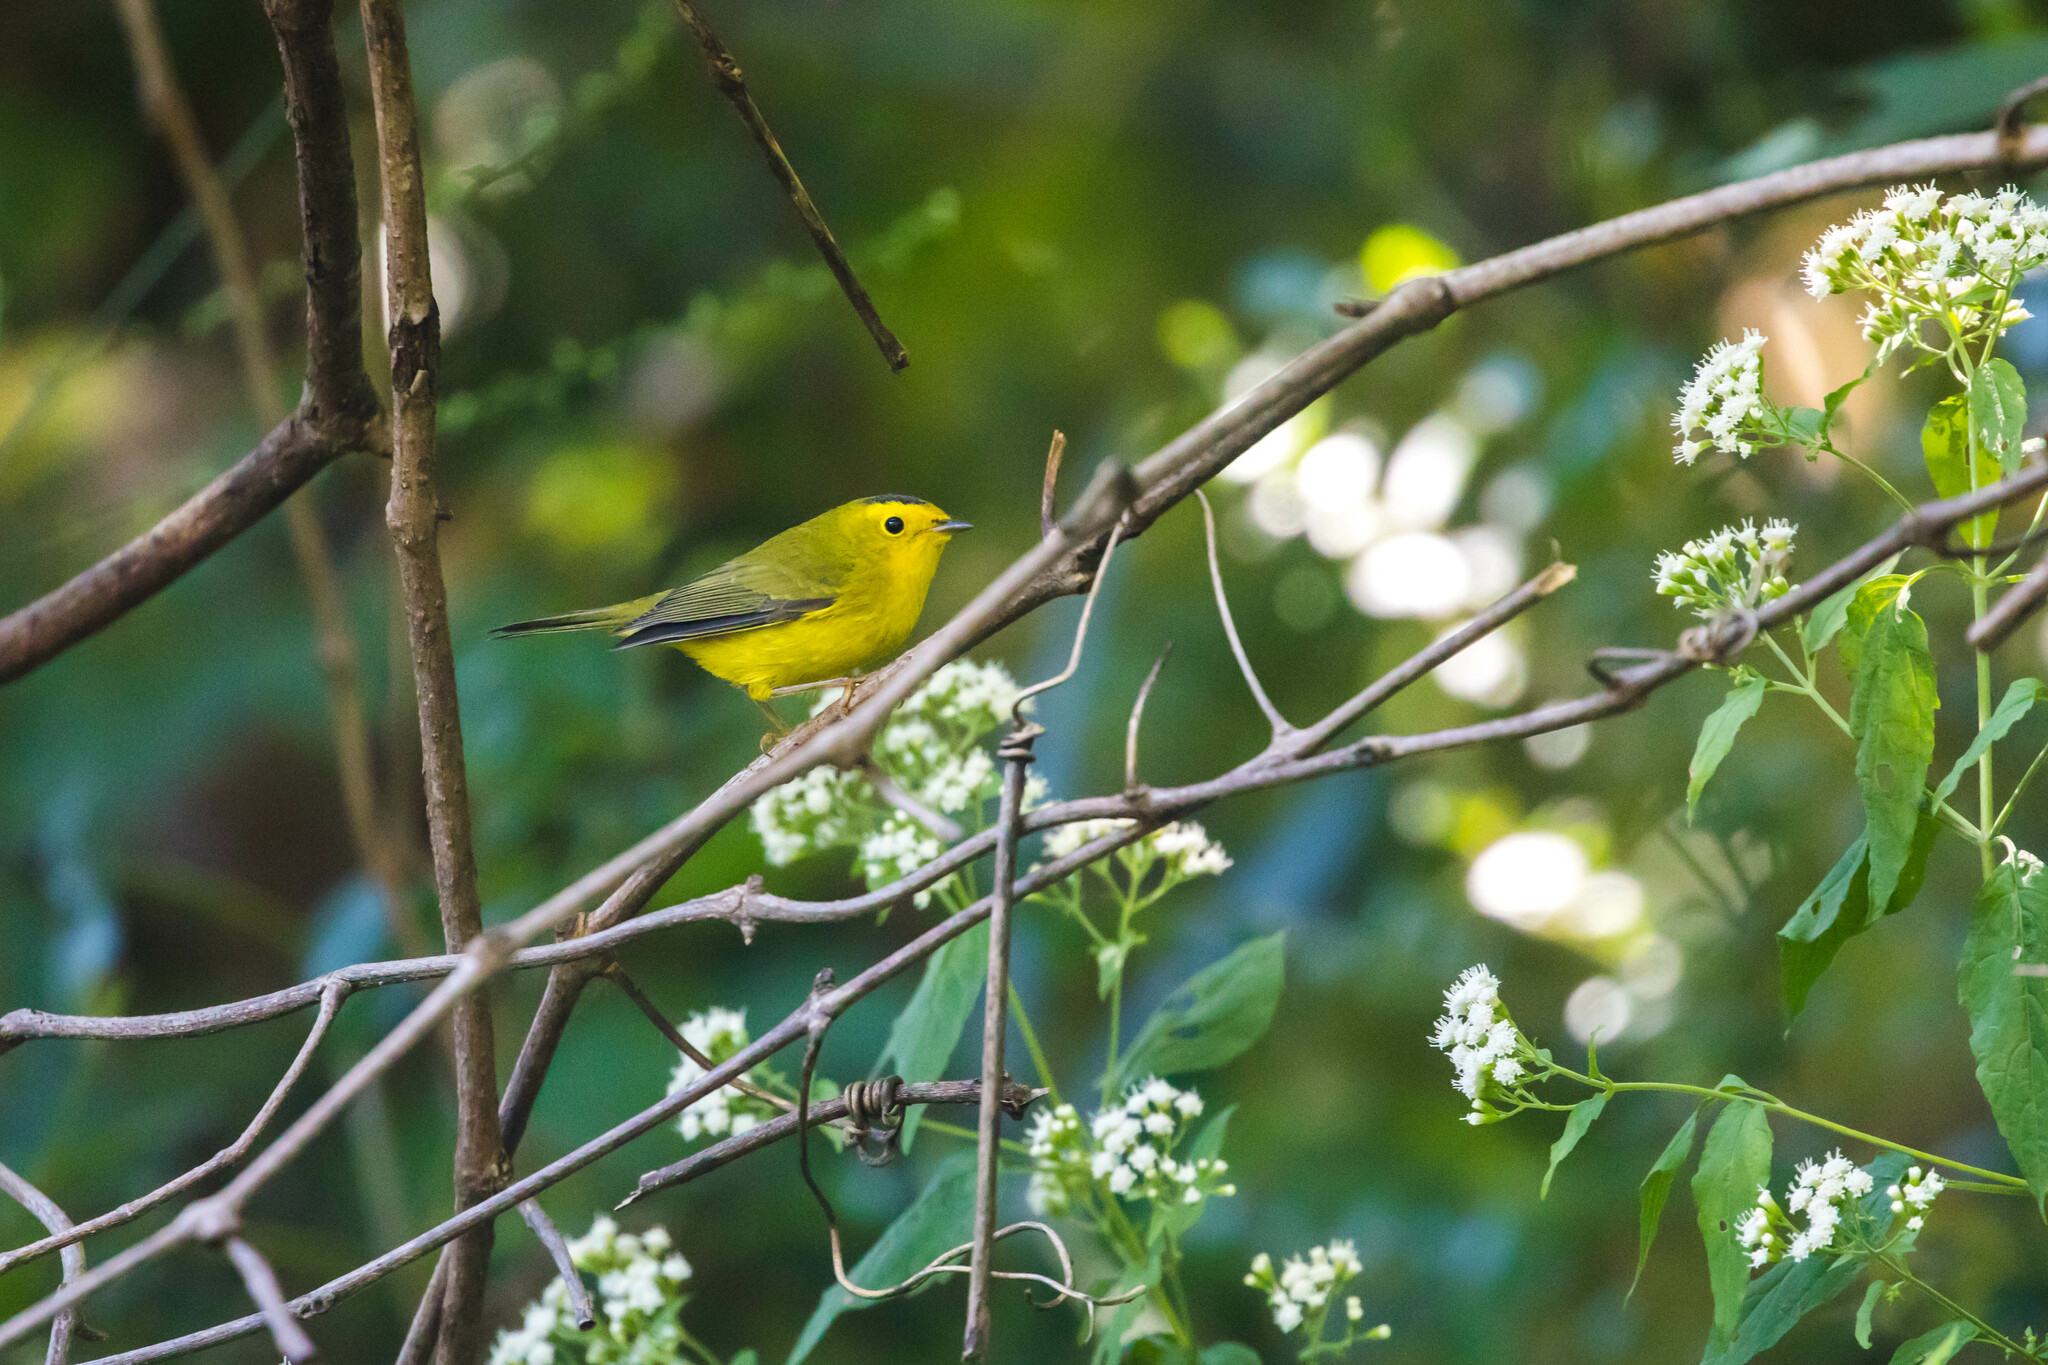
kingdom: Animalia
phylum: Chordata
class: Aves
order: Passeriformes
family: Parulidae
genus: Cardellina
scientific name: Cardellina pusilla
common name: Wilson's warbler
